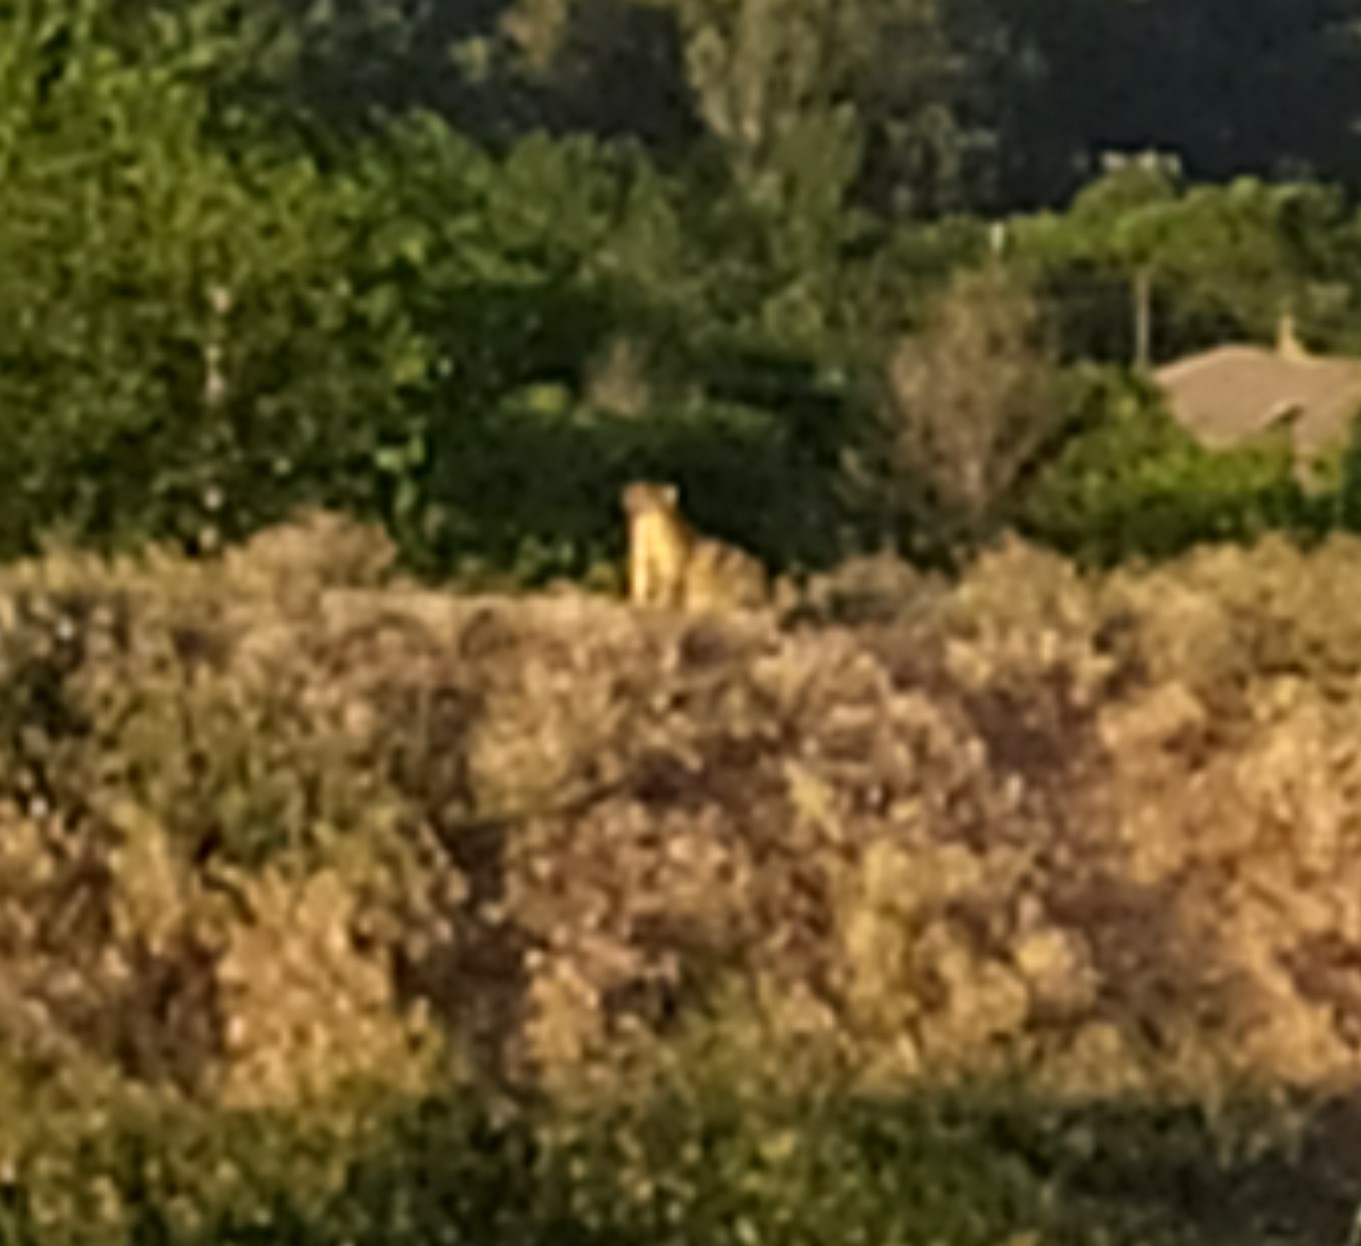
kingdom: Animalia
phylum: Chordata
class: Mammalia
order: Rodentia
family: Sciuridae
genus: Marmota
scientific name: Marmota bobak
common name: Bobak marmot
